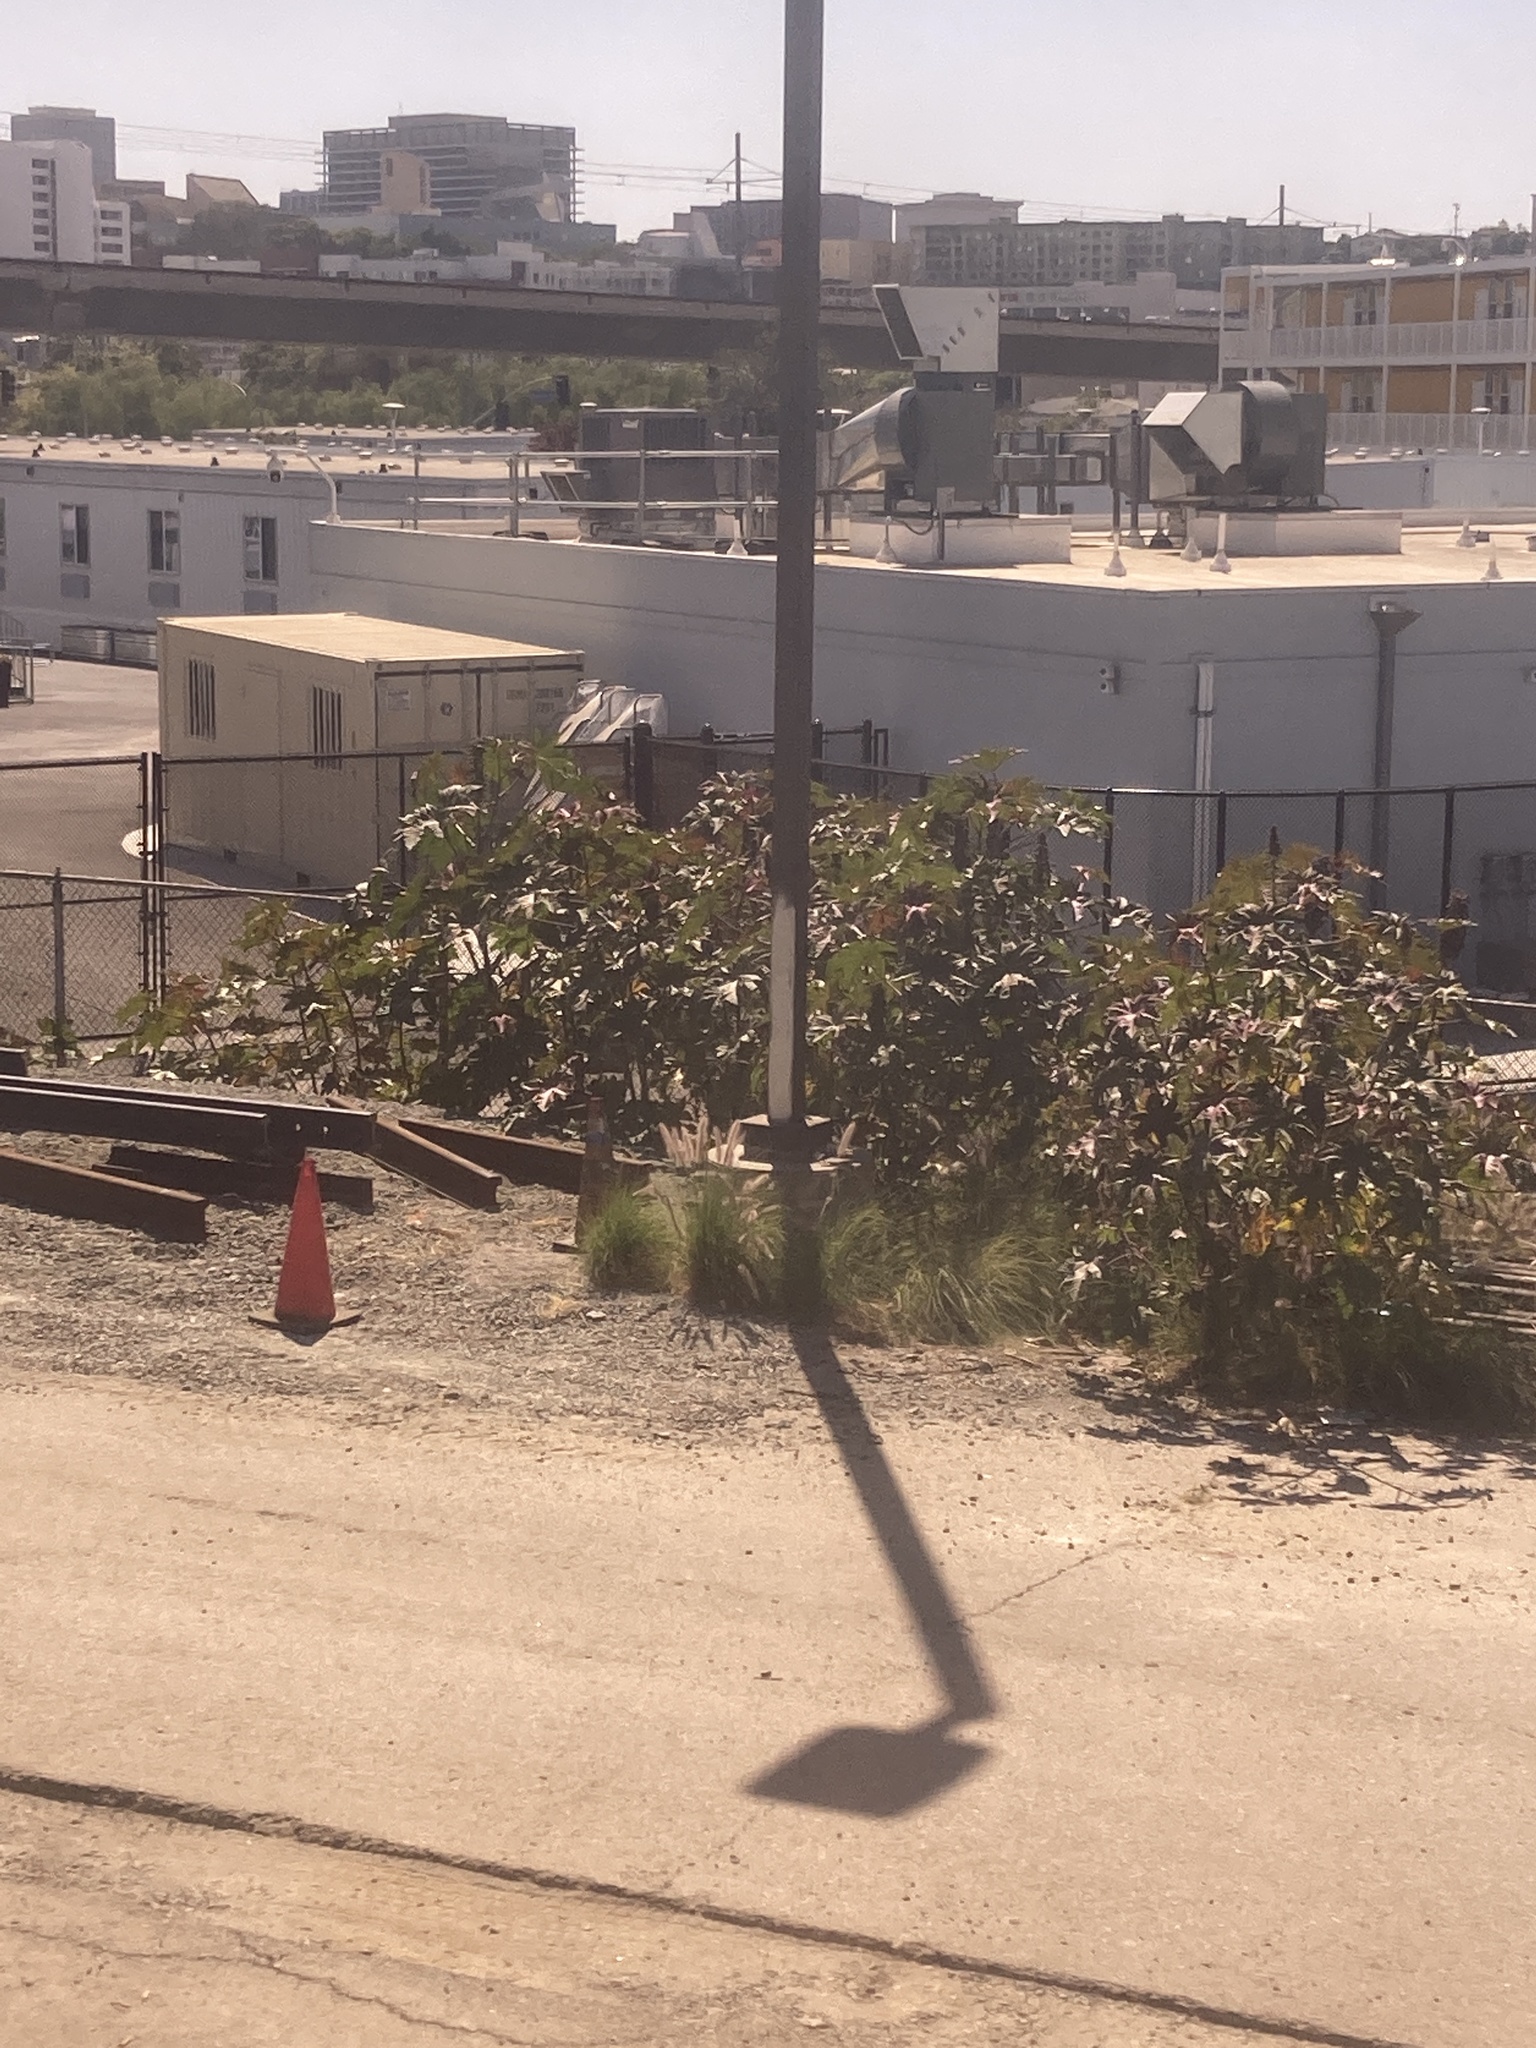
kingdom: Plantae
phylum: Tracheophyta
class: Magnoliopsida
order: Malpighiales
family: Euphorbiaceae
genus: Ricinus
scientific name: Ricinus communis
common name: Castor-oil-plant
